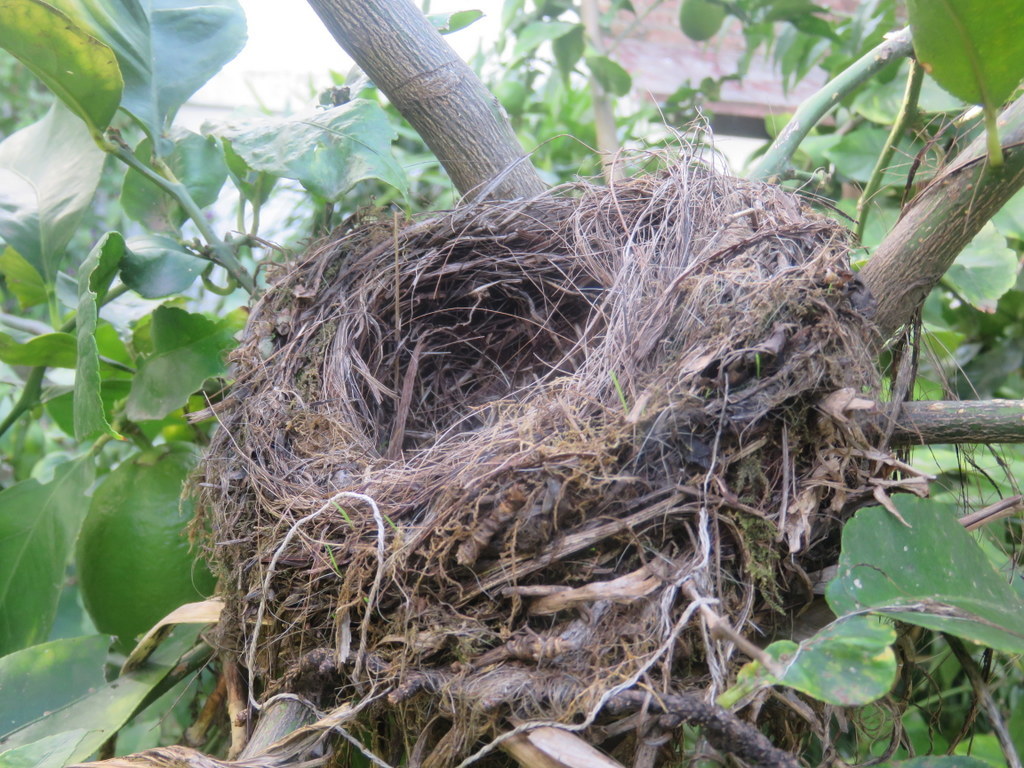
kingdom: Animalia
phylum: Chordata
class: Aves
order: Passeriformes
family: Turdidae
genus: Turdus
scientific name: Turdus rufiventris
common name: Rufous-bellied thrush
